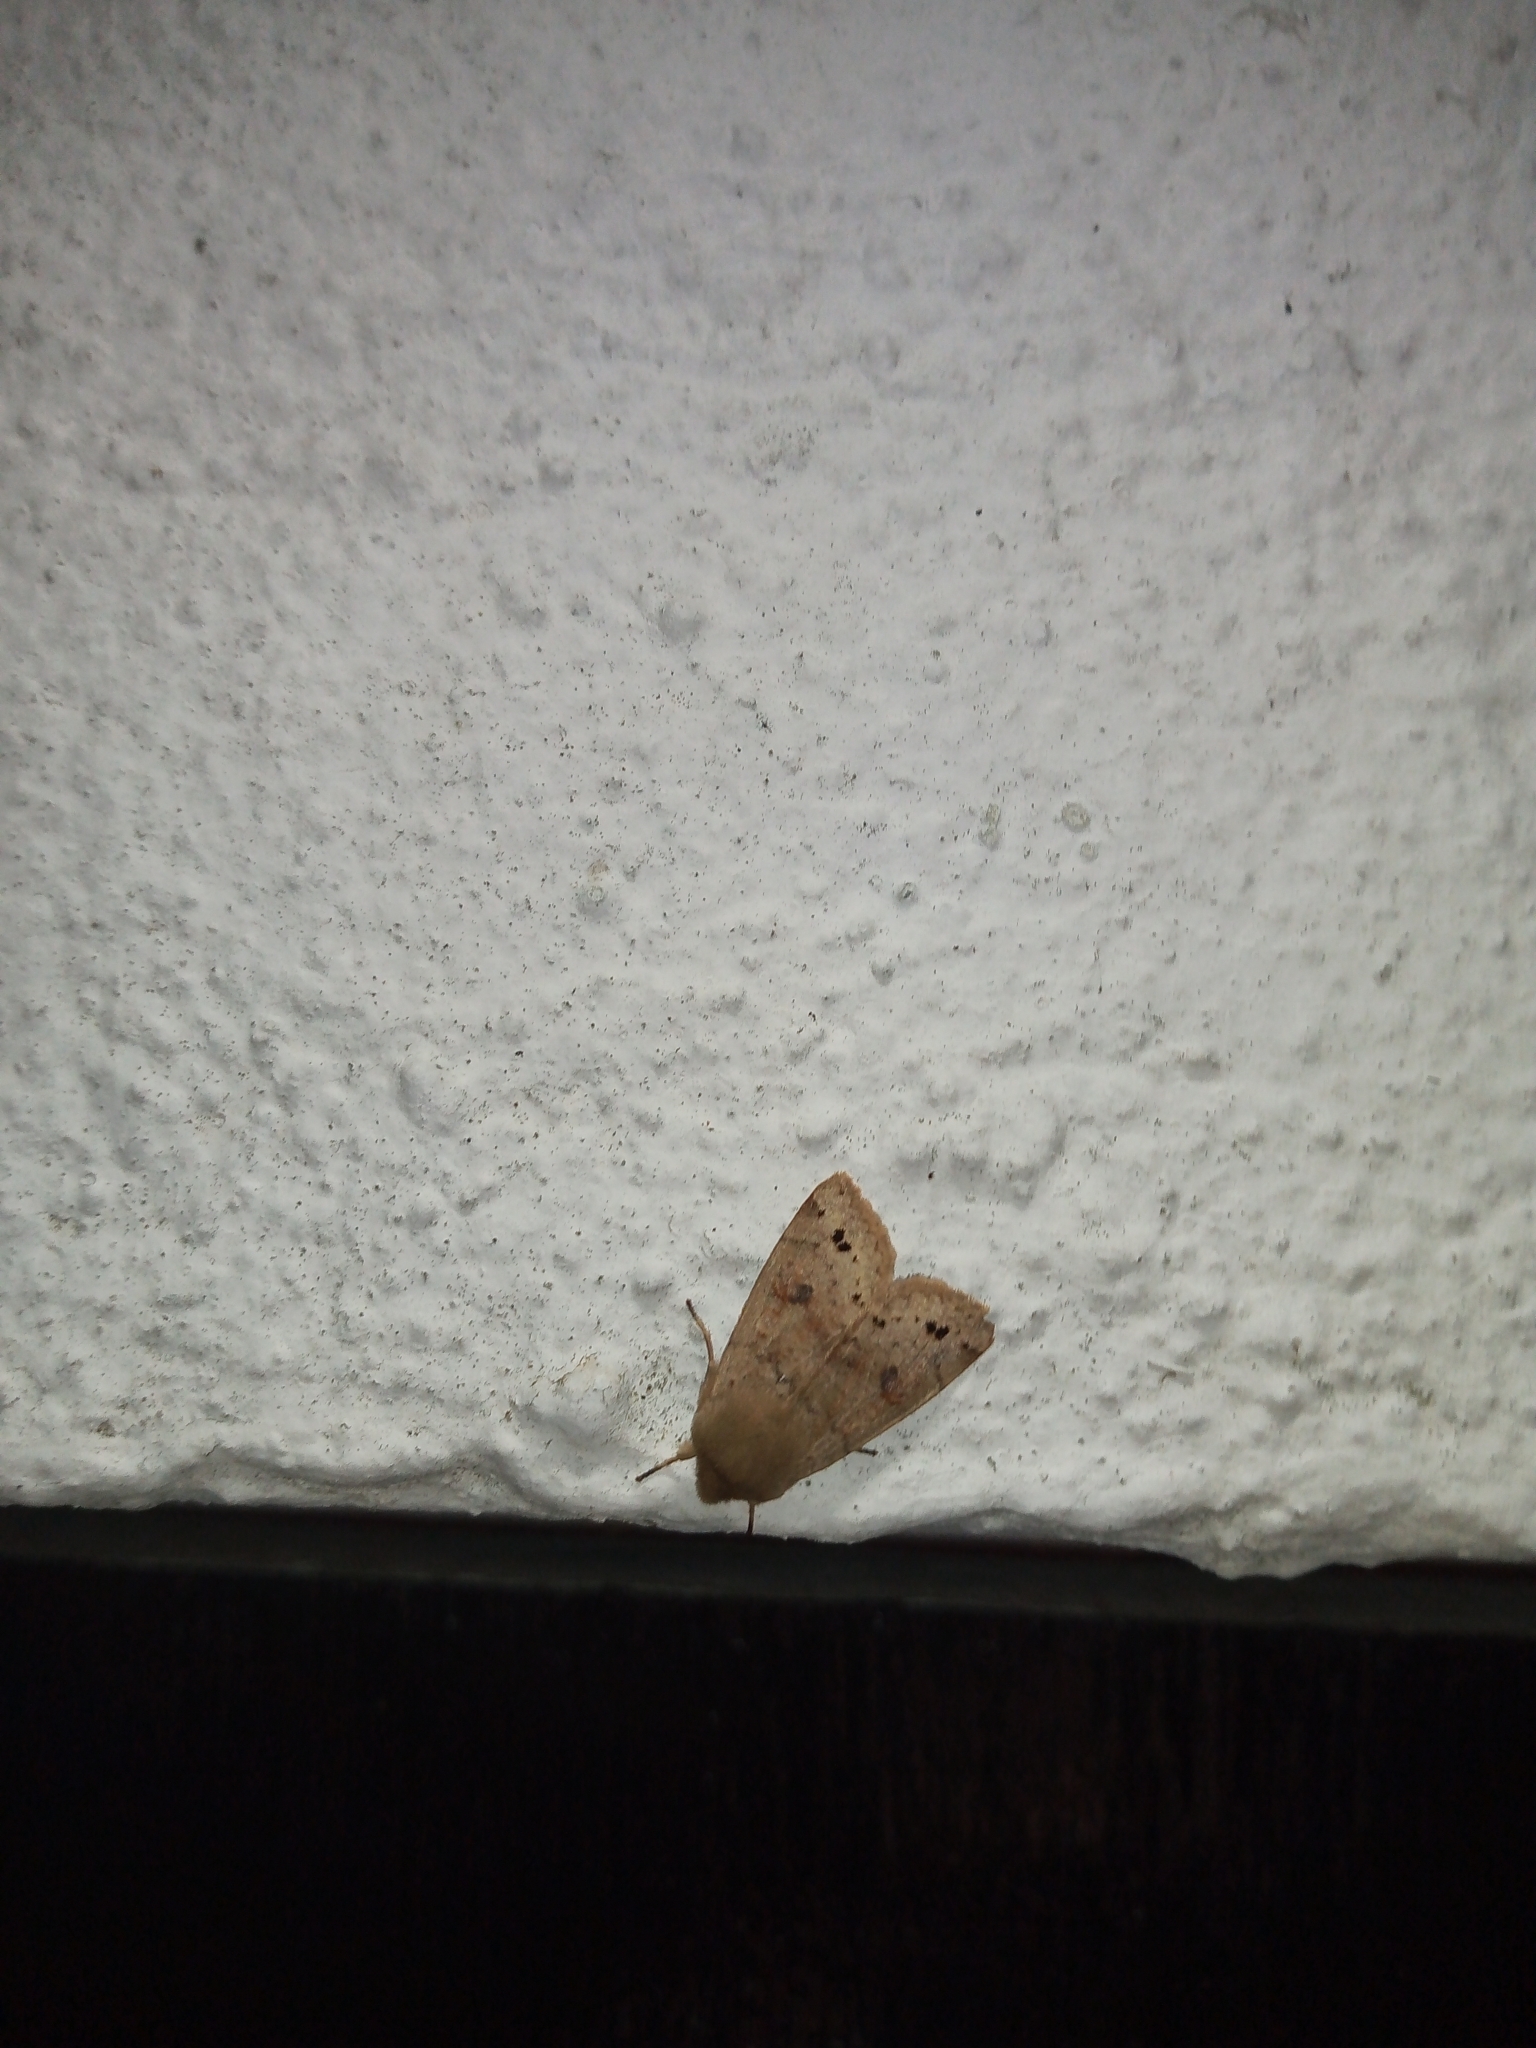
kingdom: Animalia
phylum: Arthropoda
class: Insecta
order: Lepidoptera
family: Noctuidae
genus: Anorthoa
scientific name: Anorthoa munda
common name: Twin-spotted quaker
